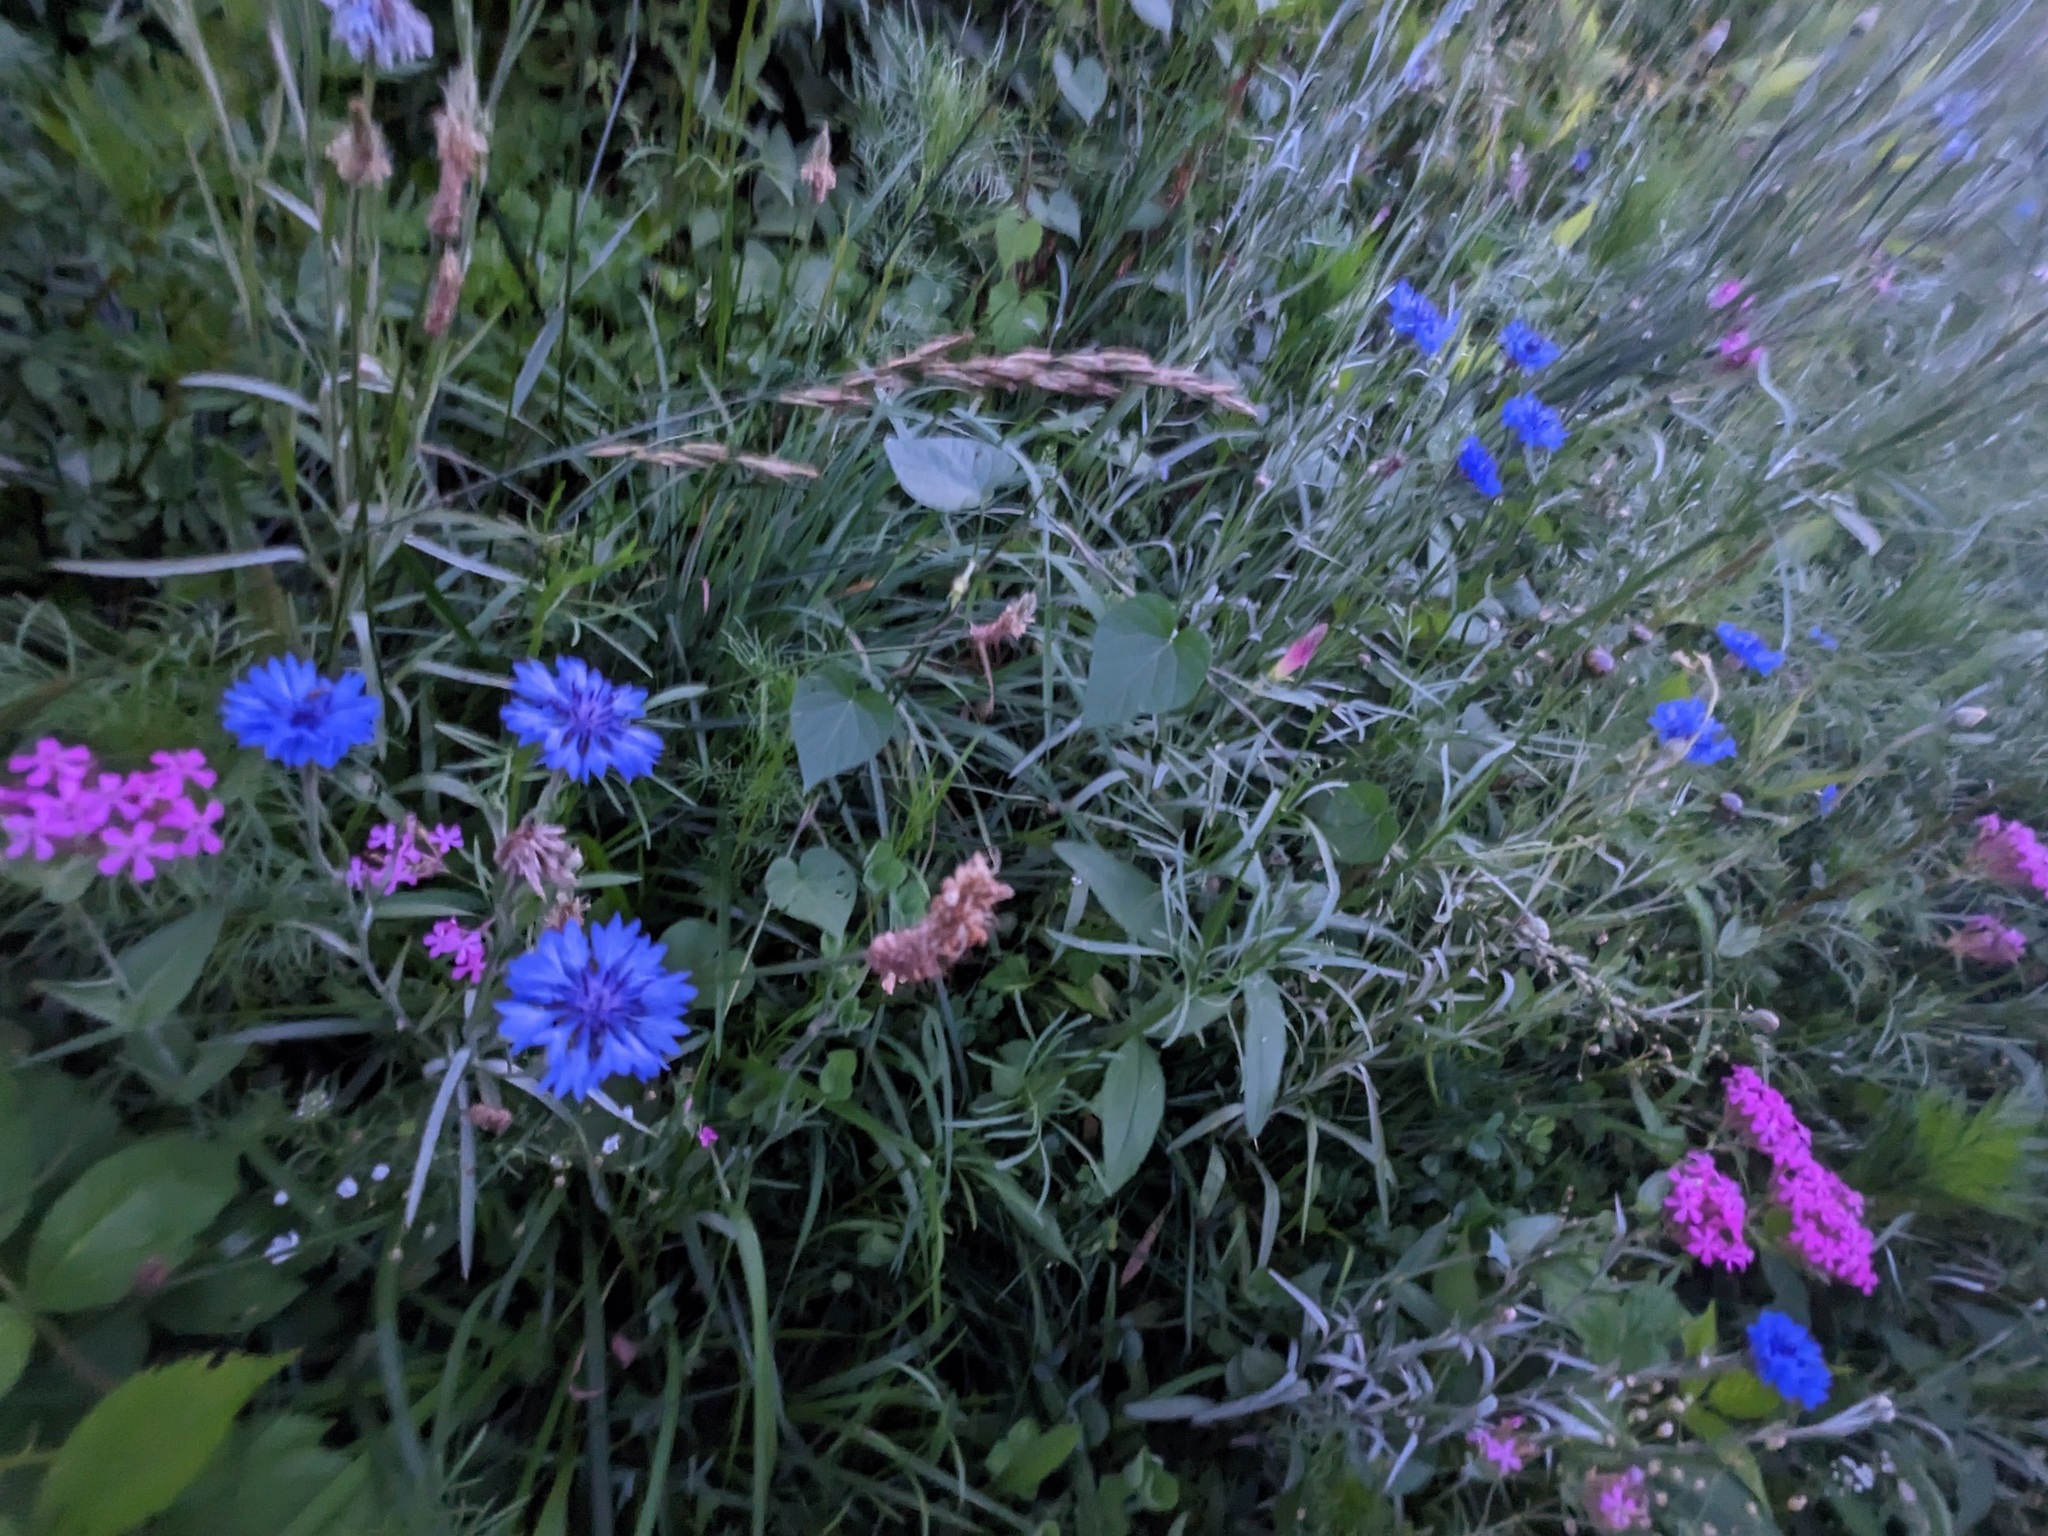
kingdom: Plantae
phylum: Tracheophyta
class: Magnoliopsida
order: Caryophyllales
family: Caryophyllaceae
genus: Atocion
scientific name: Atocion armeria
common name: Sweet william catchfly
